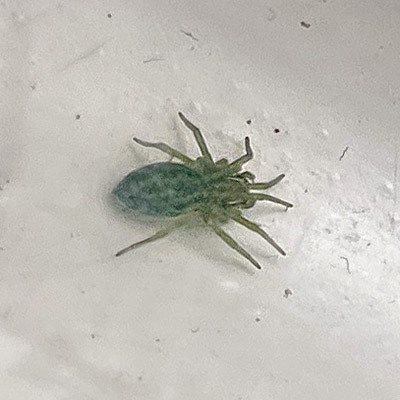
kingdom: Animalia
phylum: Arthropoda
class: Arachnida
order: Araneae
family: Dictynidae
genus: Nigma
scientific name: Nigma walckenaeri
